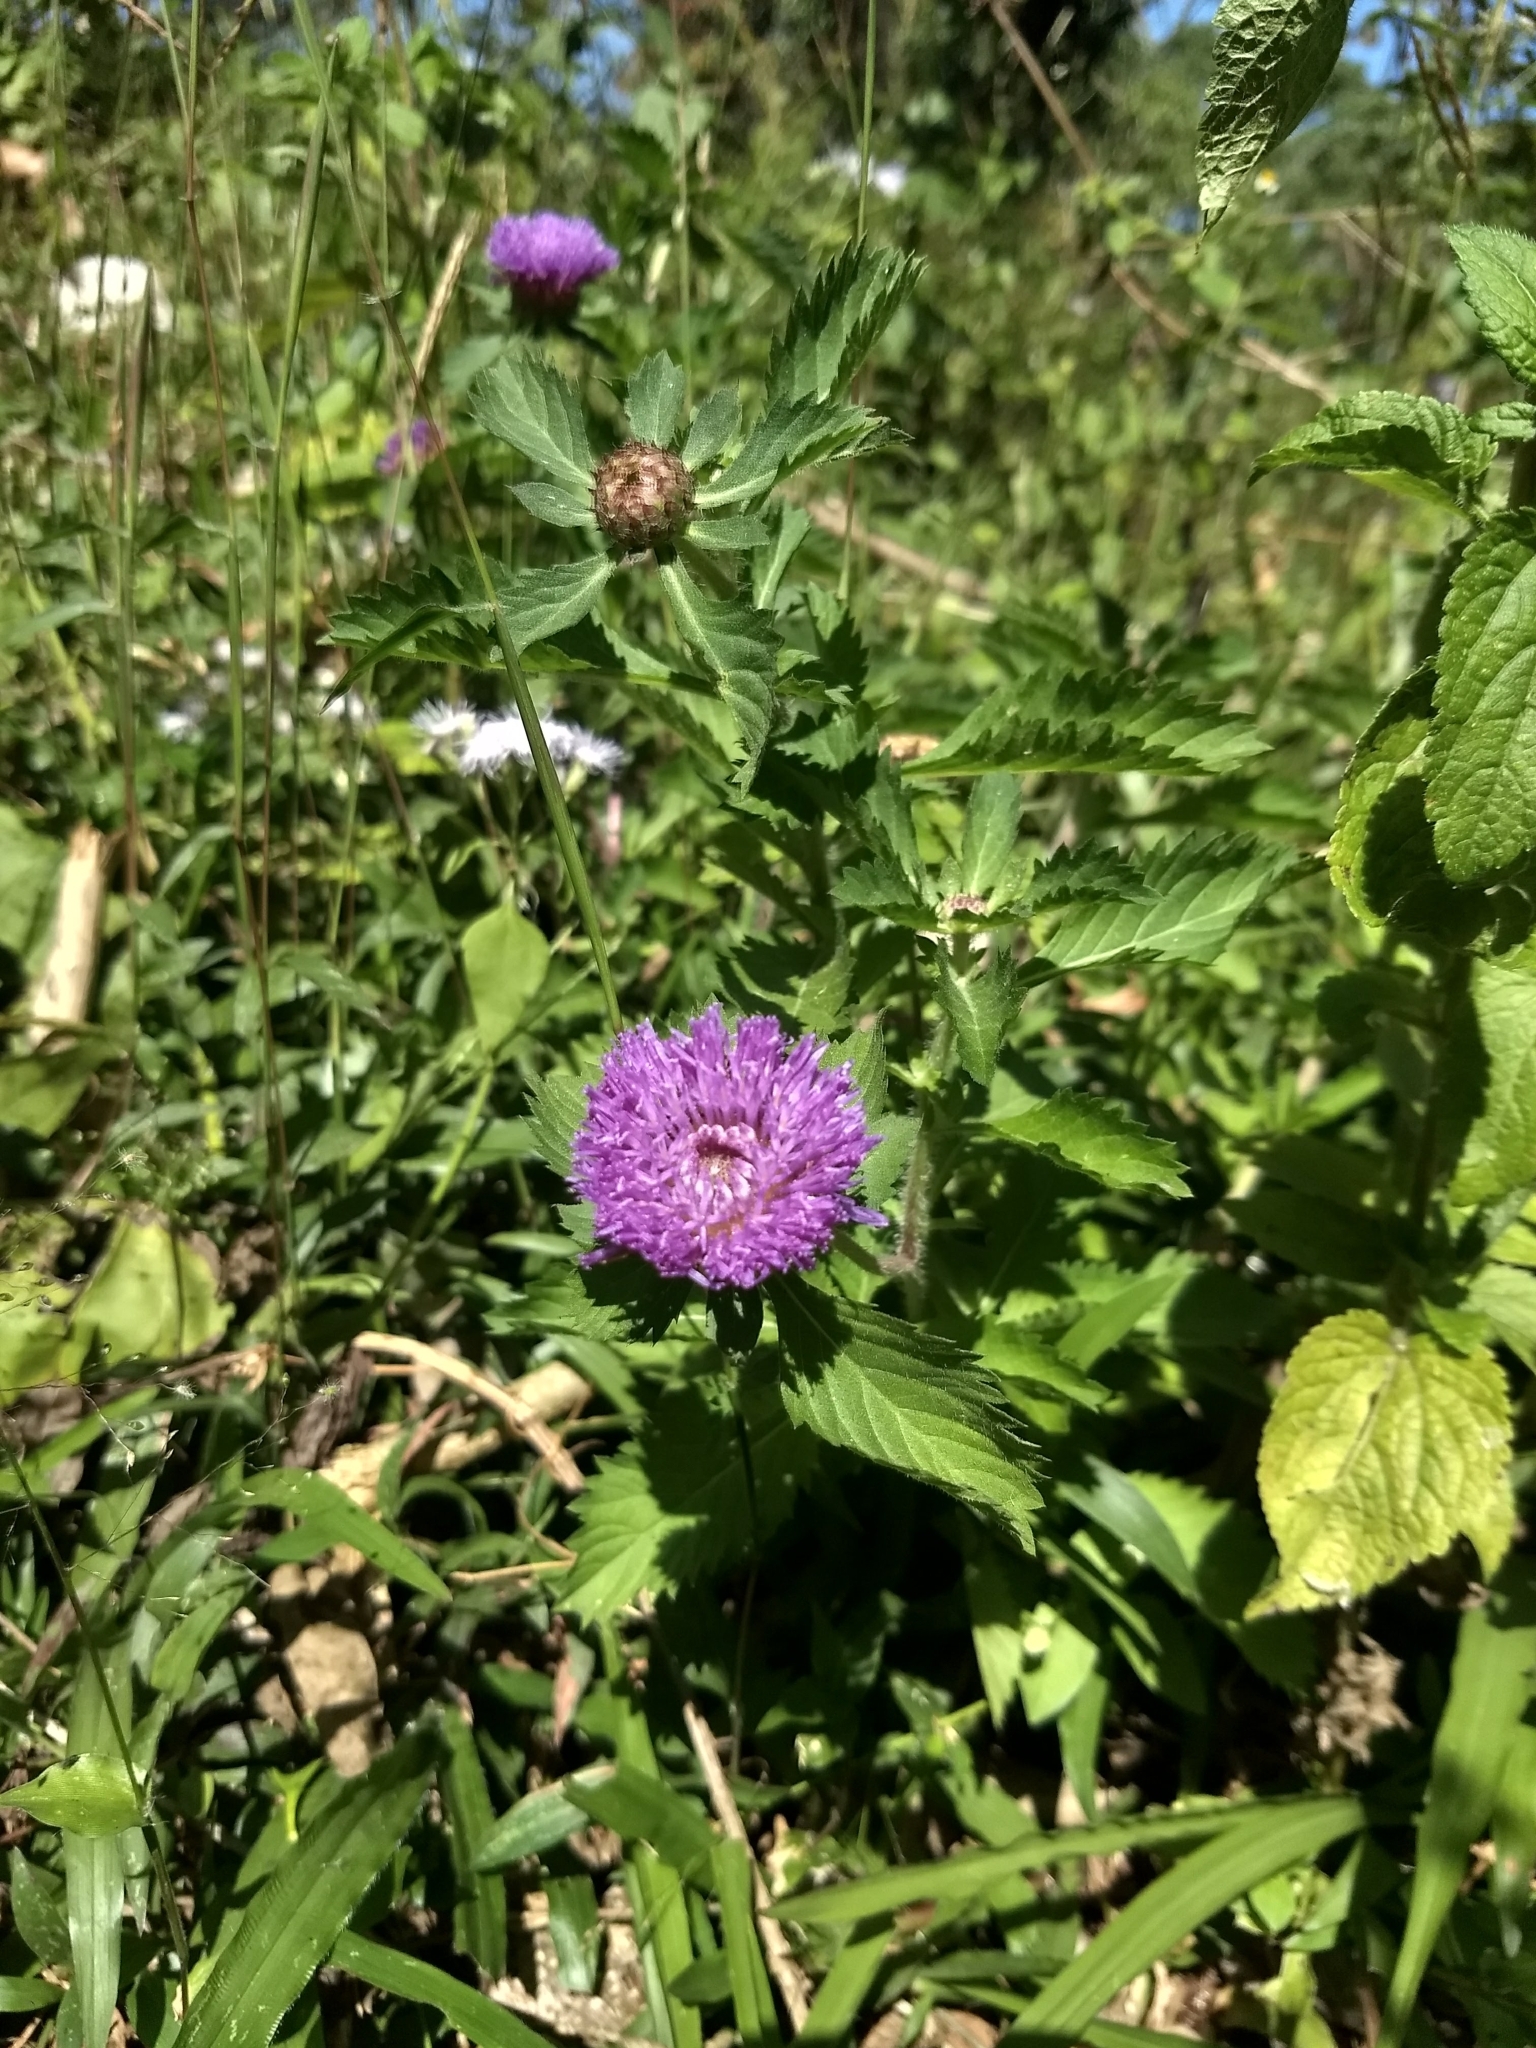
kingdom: Plantae
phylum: Tracheophyta
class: Magnoliopsida
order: Asterales
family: Asteraceae
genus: Centratherum
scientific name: Centratherum punctatum
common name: Larkdaisy
